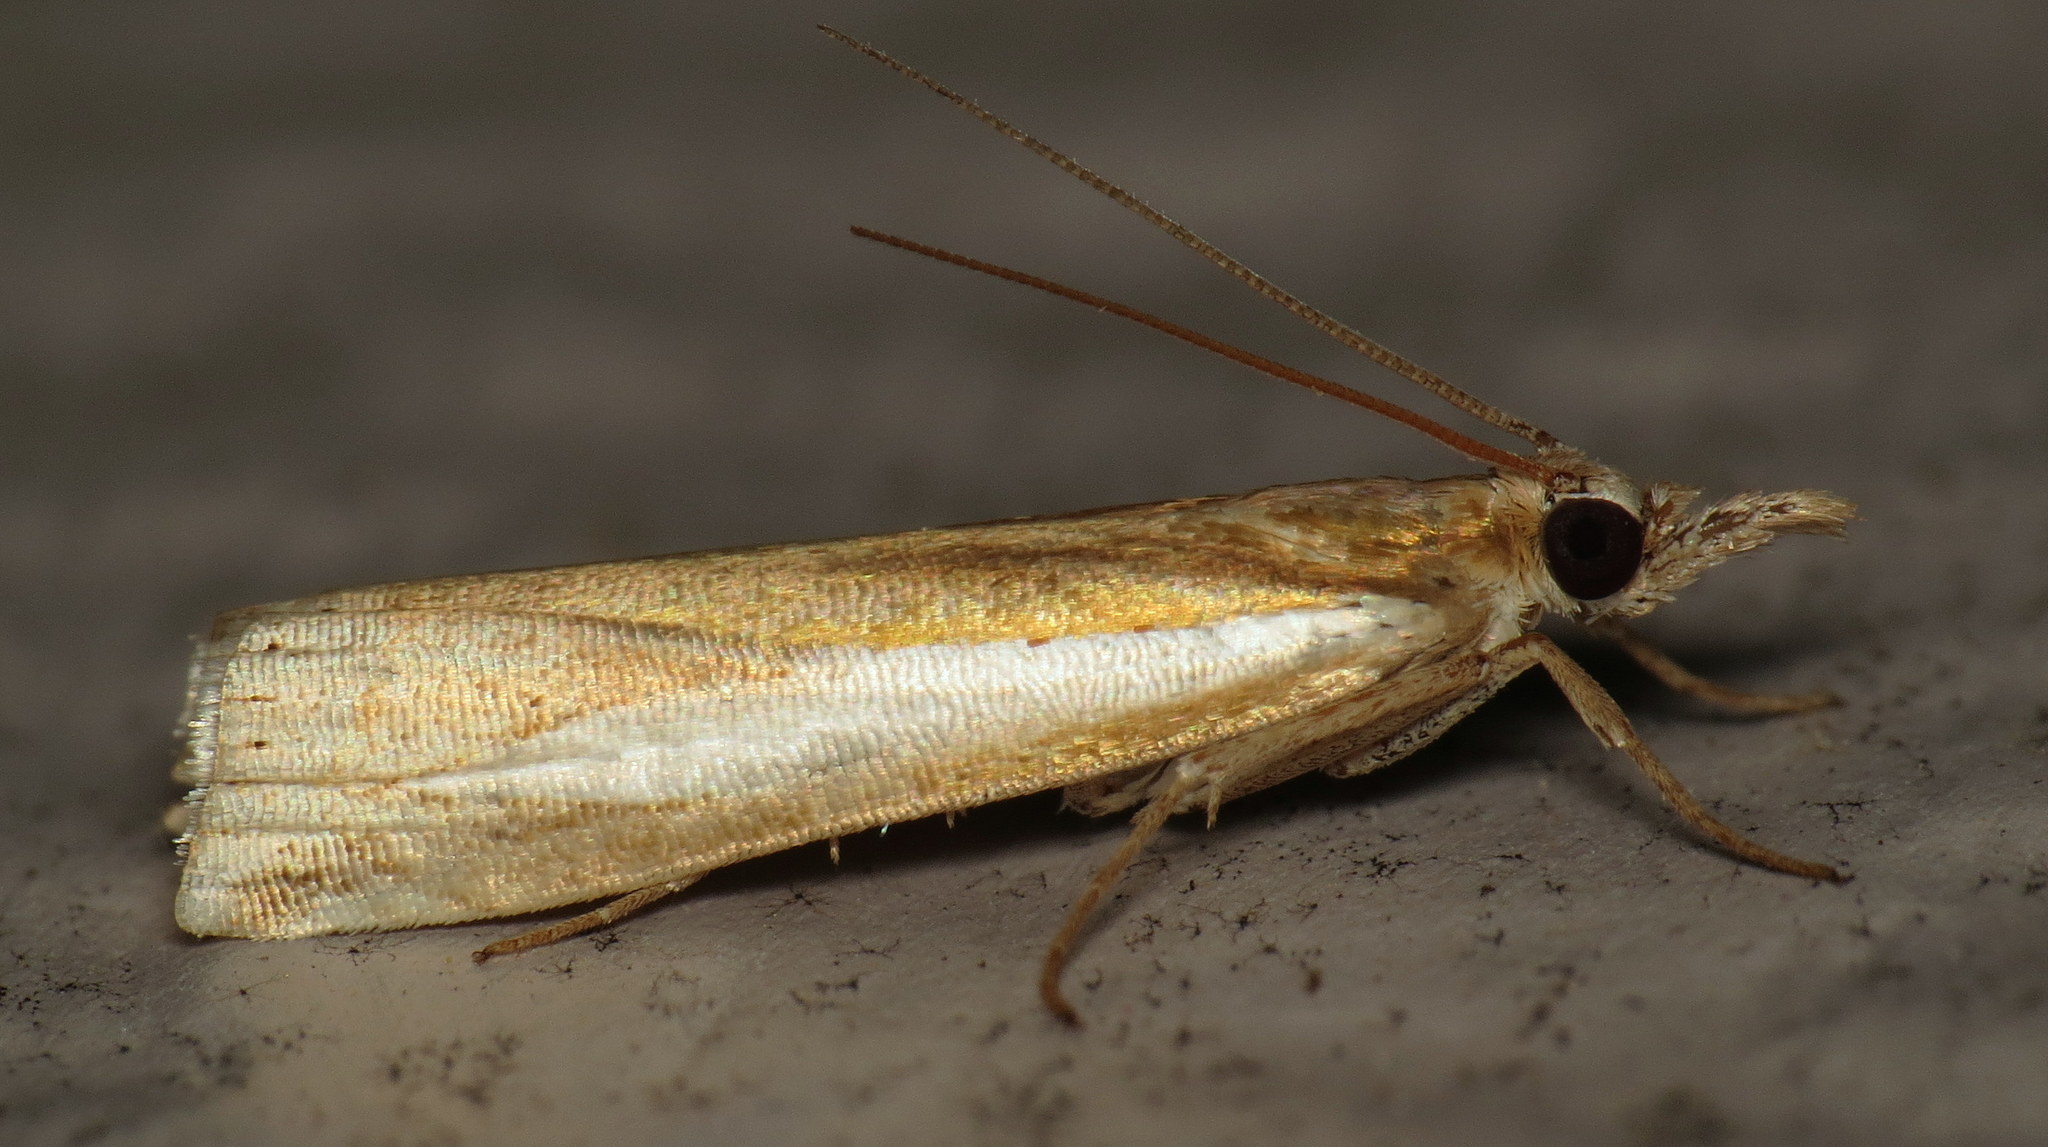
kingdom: Animalia
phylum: Arthropoda
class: Insecta
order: Lepidoptera
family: Crambidae
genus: Crambus
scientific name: Crambus praefectellus
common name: Common grass-veneer
